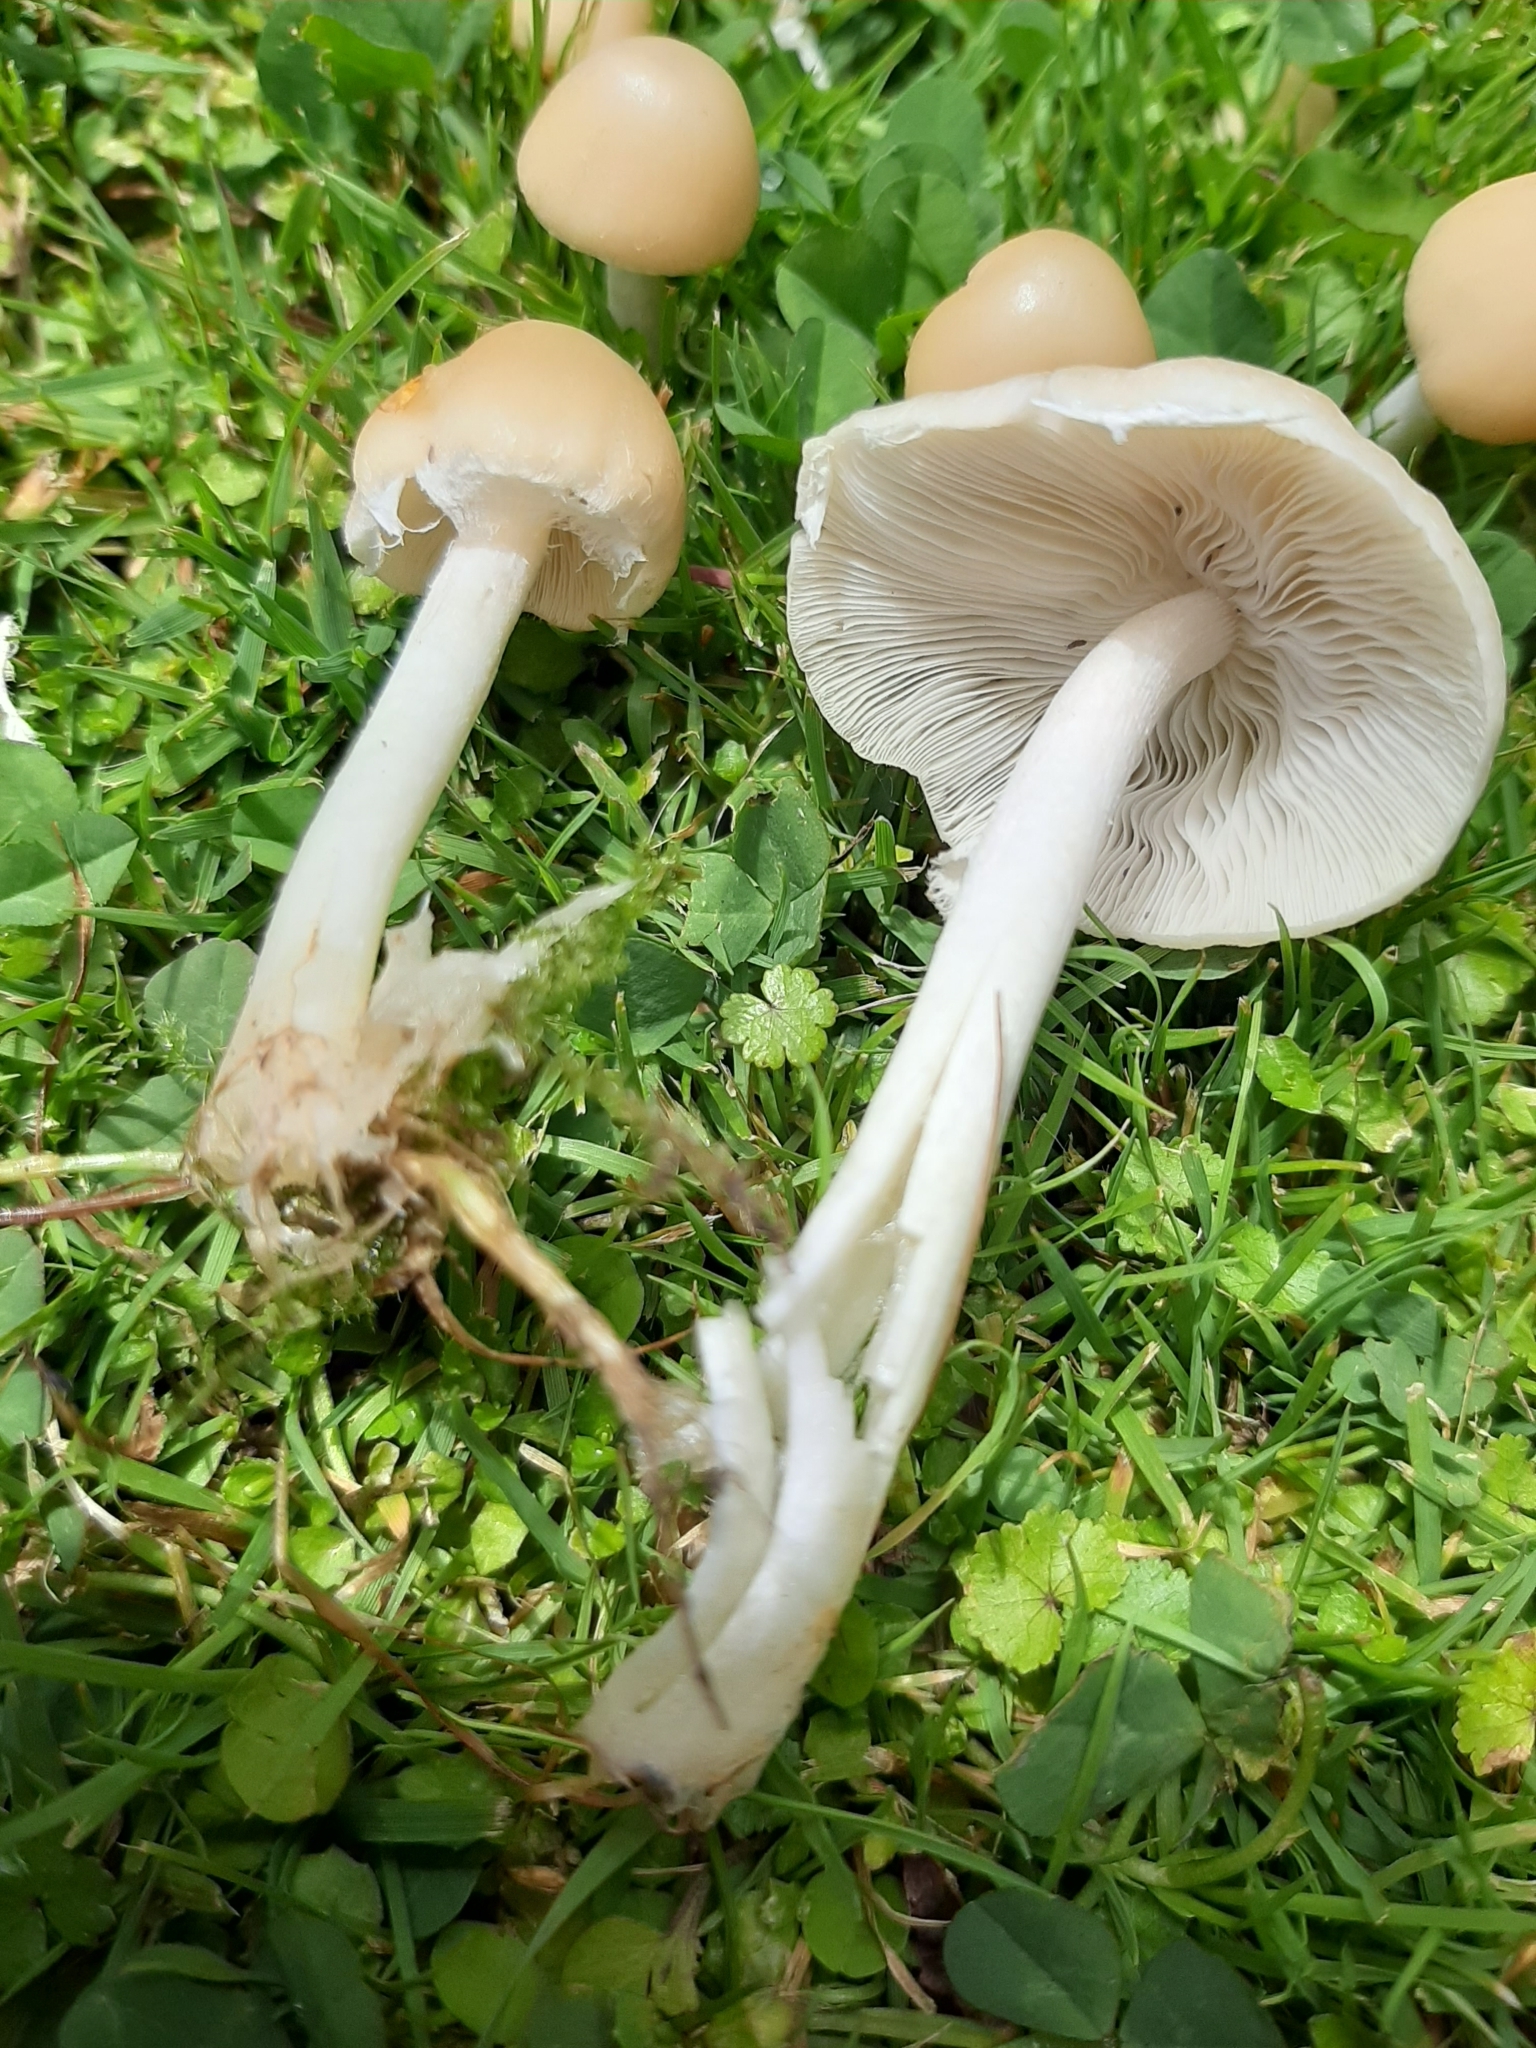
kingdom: Fungi
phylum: Basidiomycota
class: Agaricomycetes
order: Agaricales
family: Psathyrellaceae
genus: Candolleomyces
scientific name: Candolleomyces candolleanus
